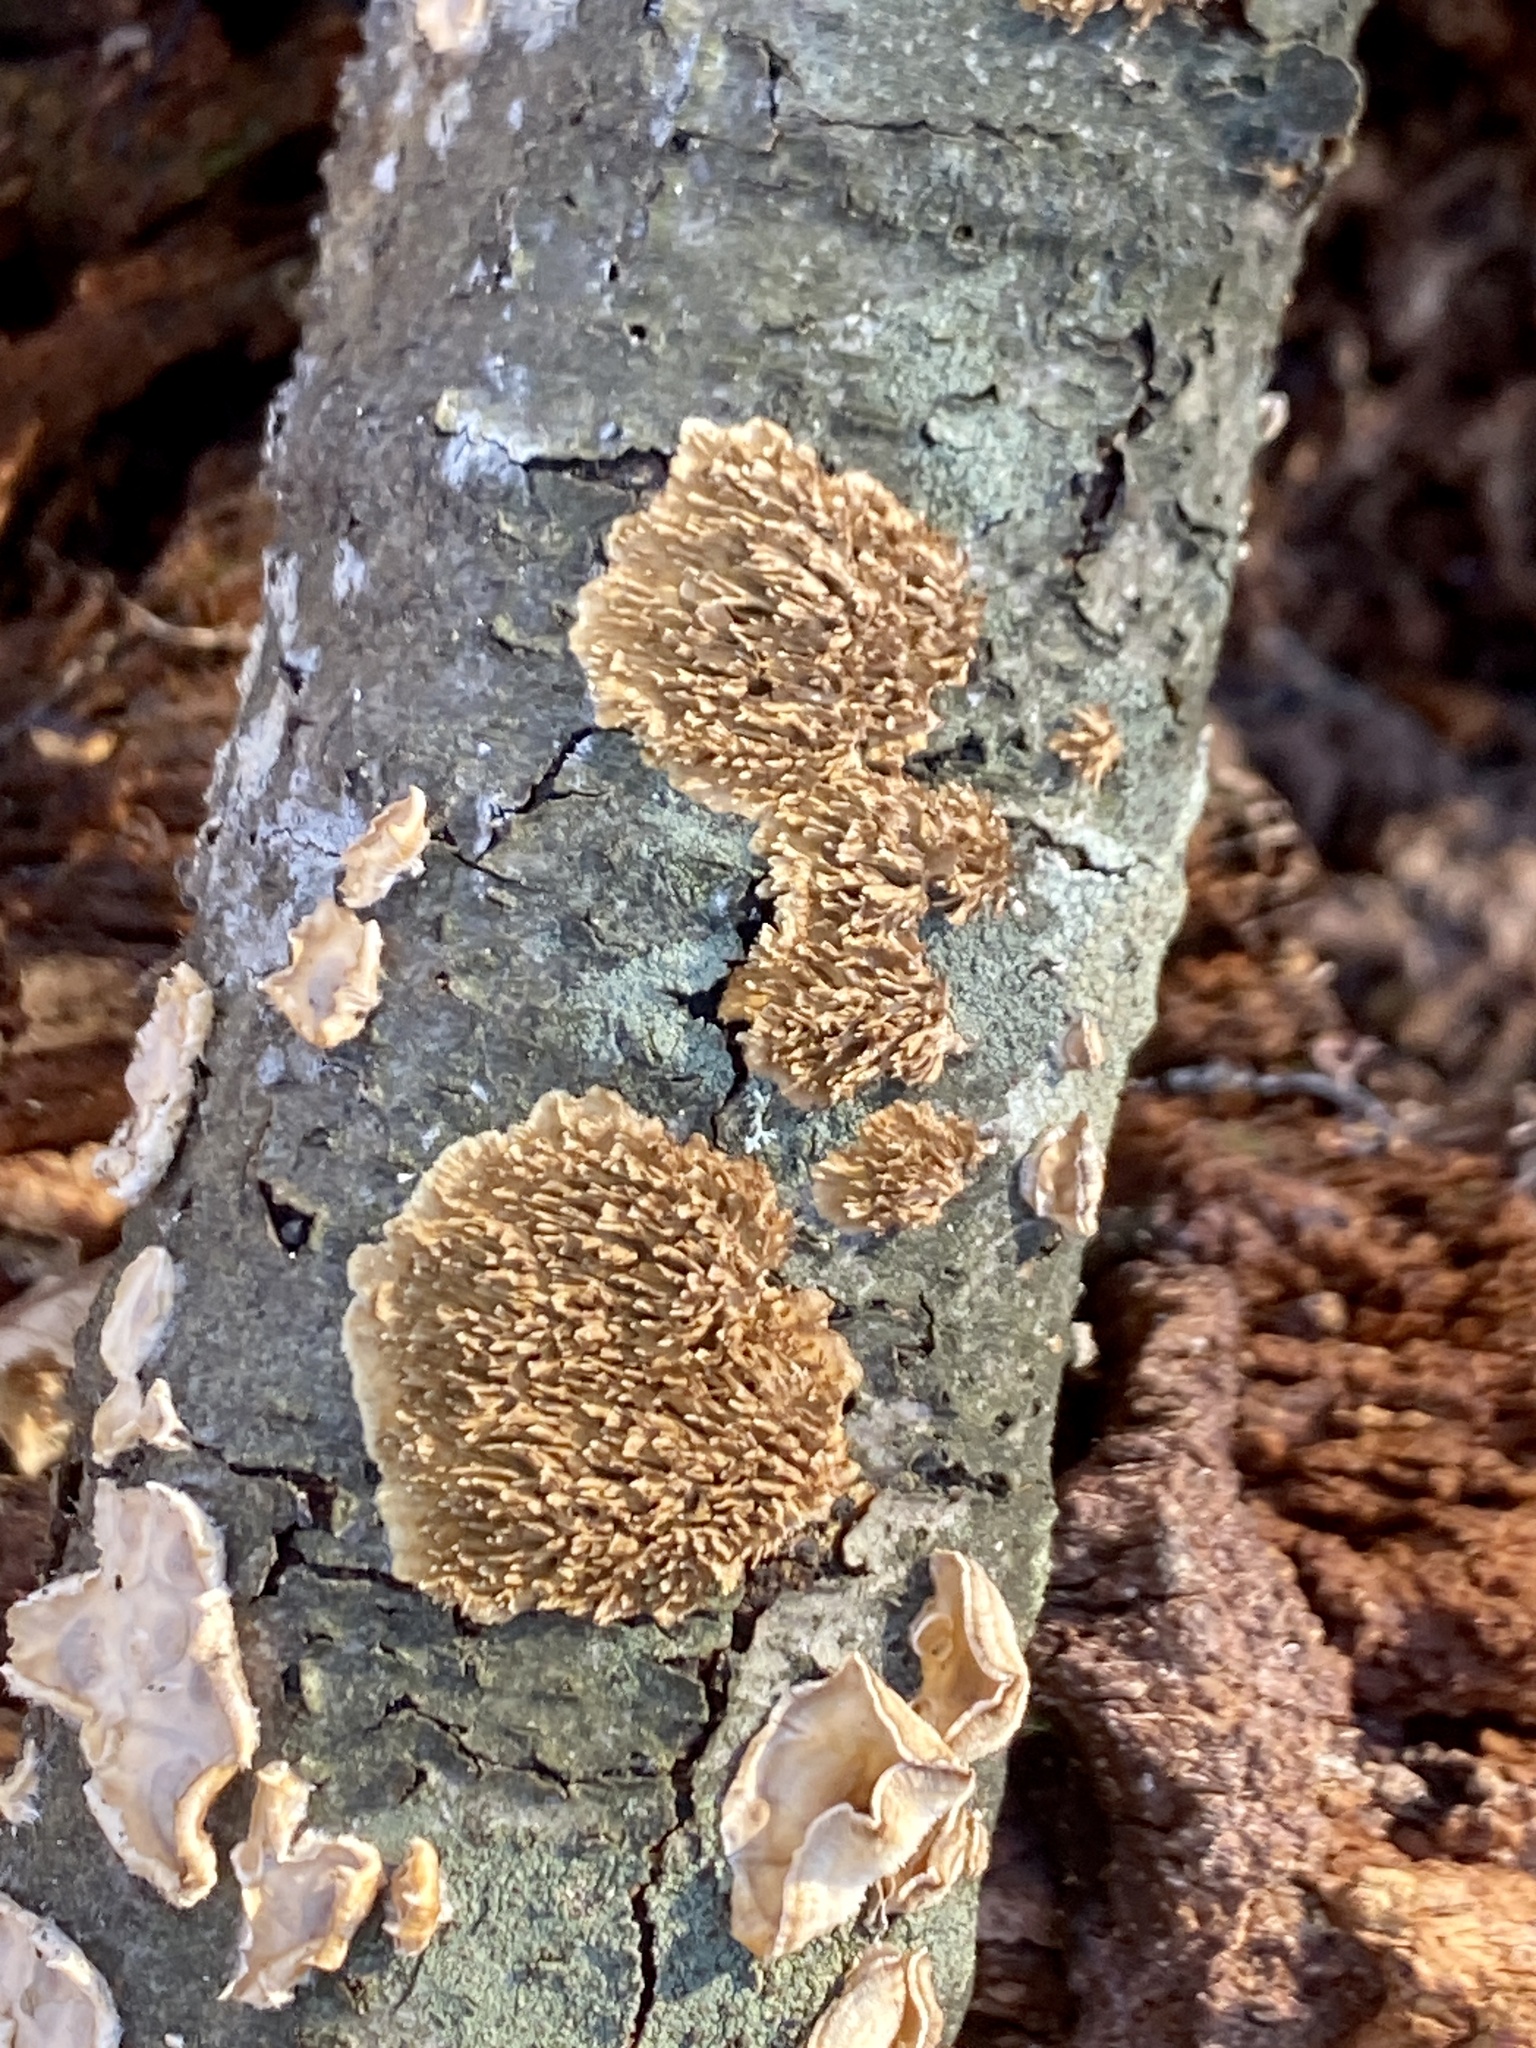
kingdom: Fungi
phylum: Basidiomycota
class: Agaricomycetes
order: Hymenochaetales
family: Hymenochaetaceae
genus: Hydnoporia
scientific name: Hydnoporia olivacea
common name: Brown-toothed crust fungus
